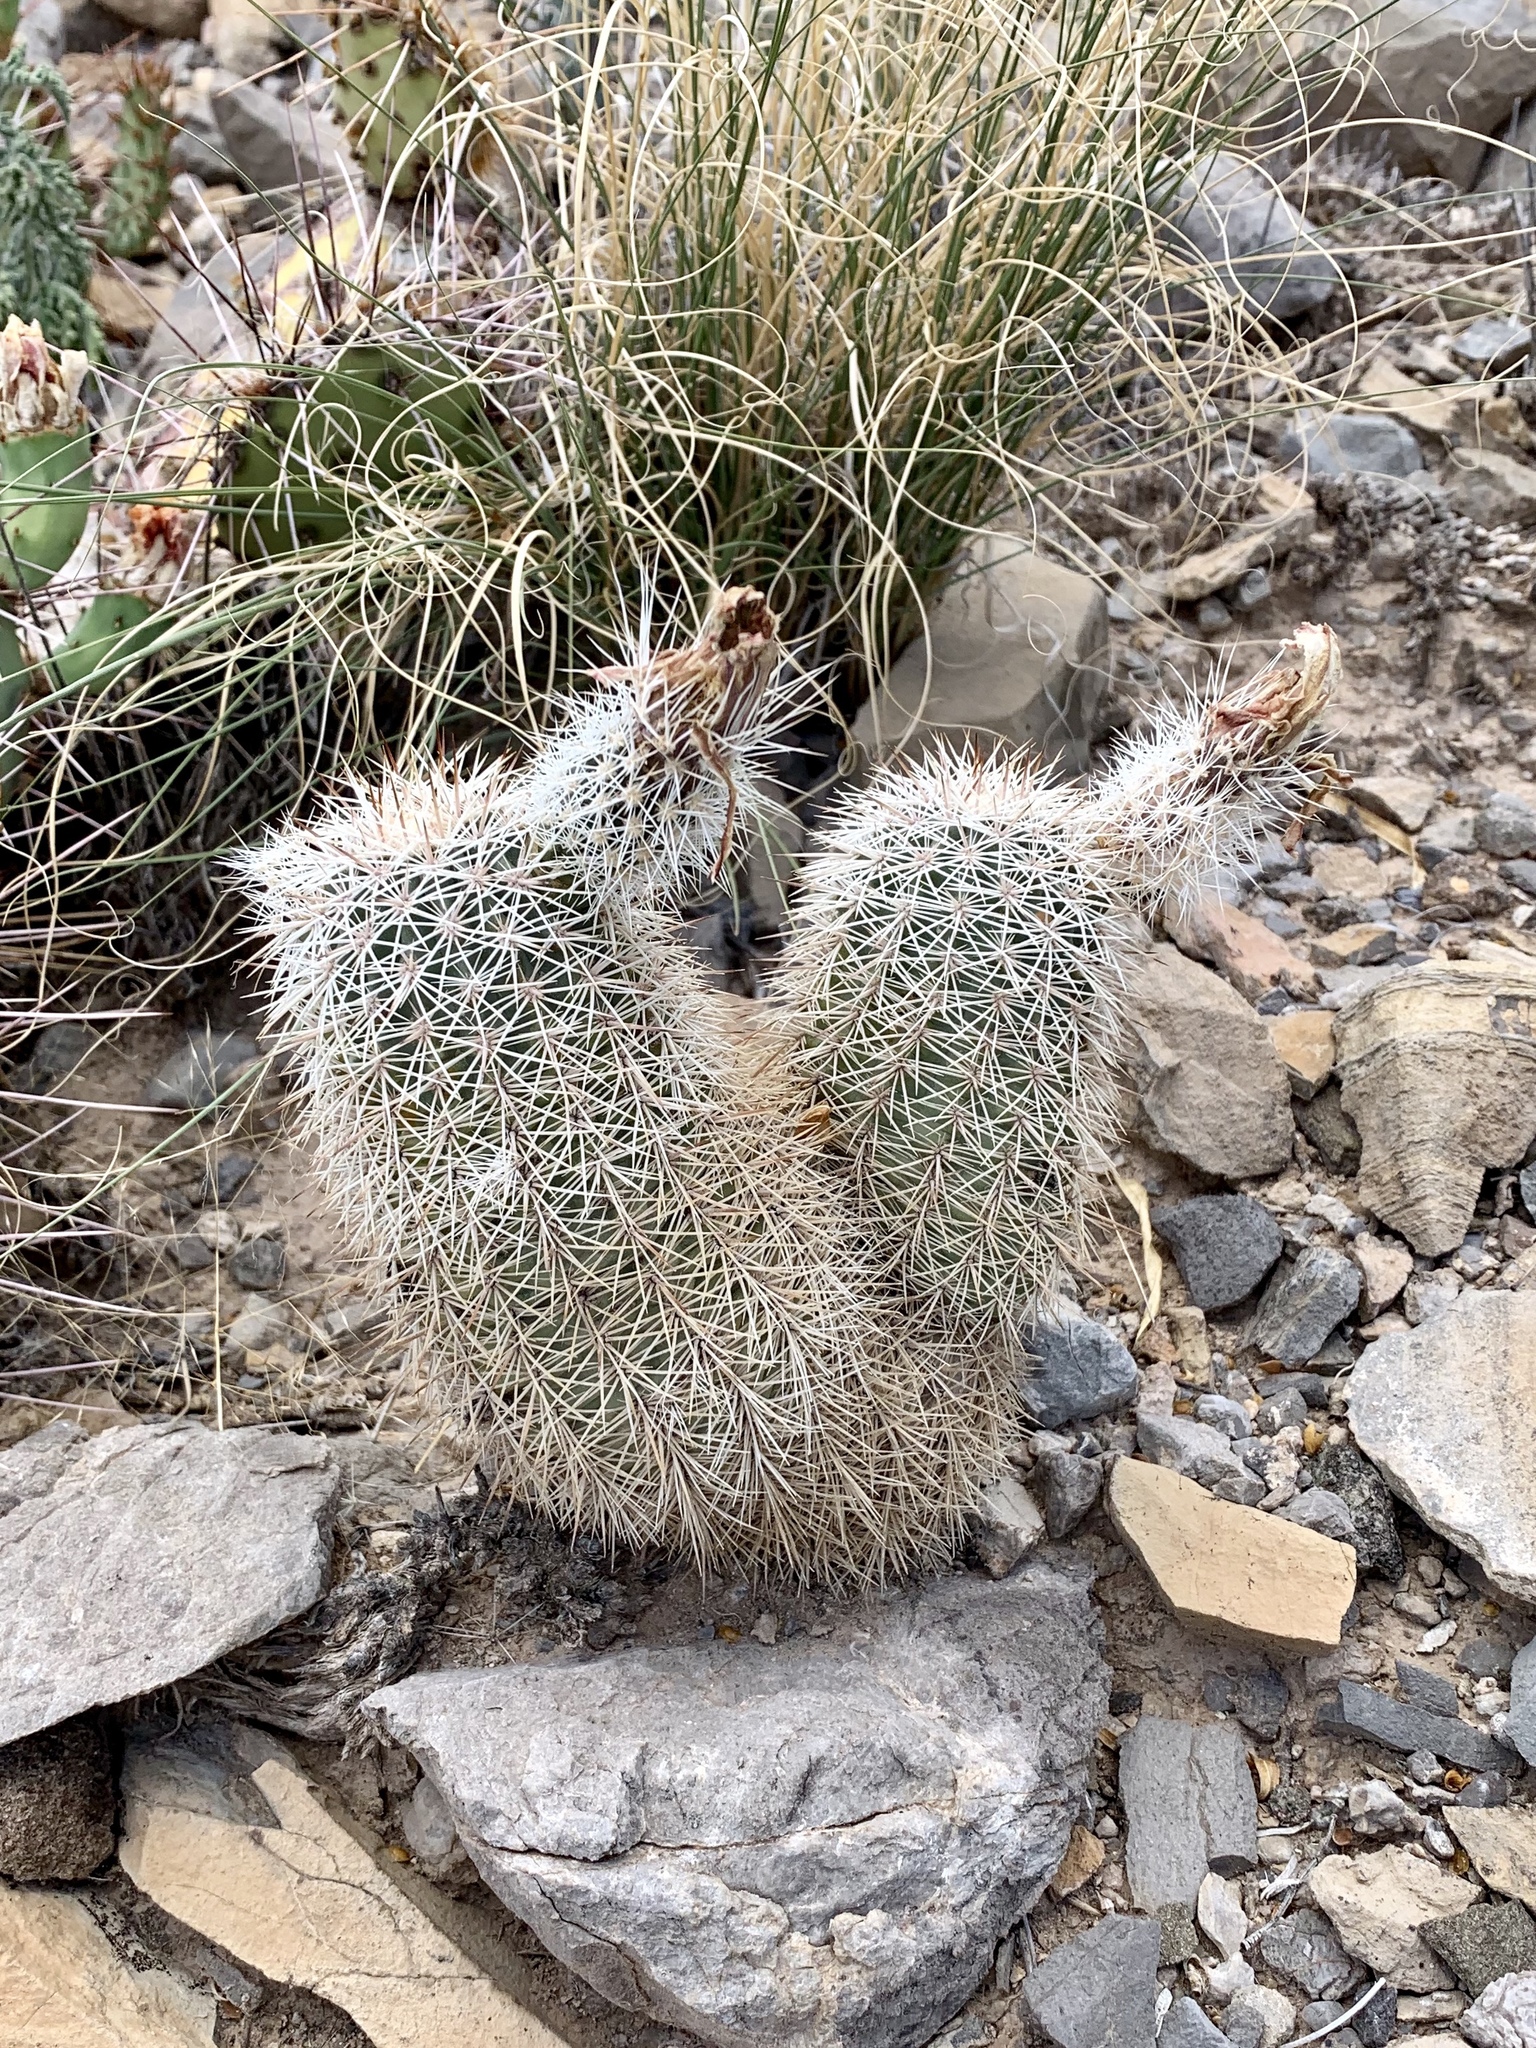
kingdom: Plantae
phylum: Tracheophyta
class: Magnoliopsida
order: Caryophyllales
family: Cactaceae
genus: Echinocereus
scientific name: Echinocereus dasyacanthus
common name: Spiny hedgehog cactus
